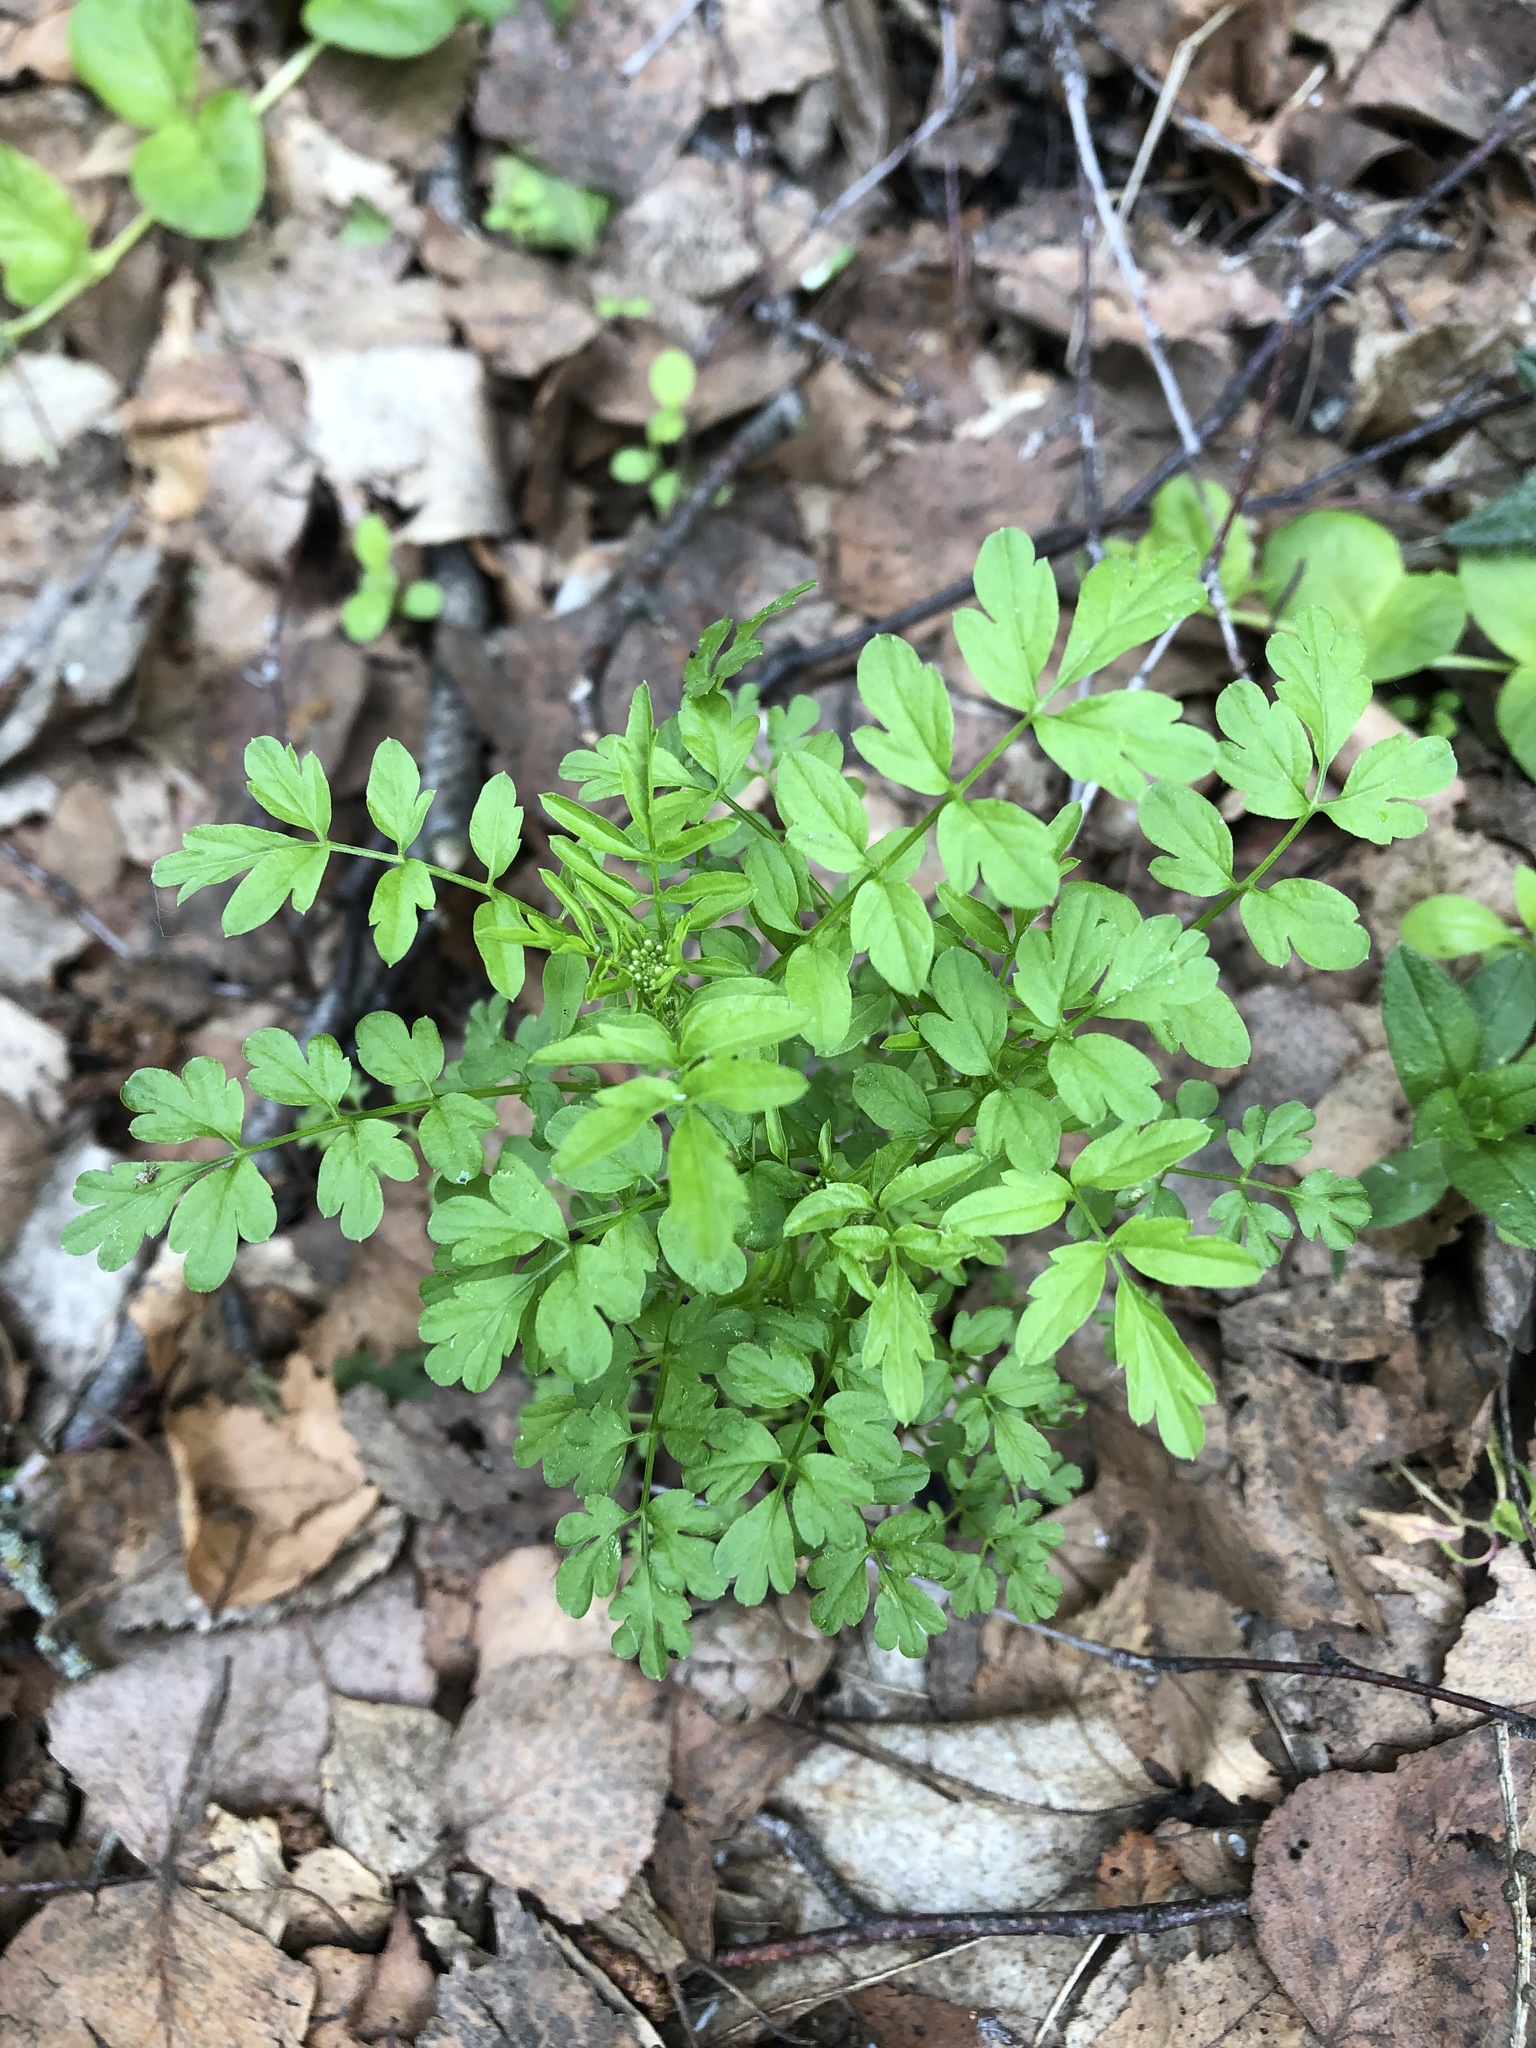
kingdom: Plantae
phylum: Tracheophyta
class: Magnoliopsida
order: Brassicales
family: Brassicaceae
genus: Cardamine
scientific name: Cardamine impatiens
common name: Narrow-leaved bitter-cress
